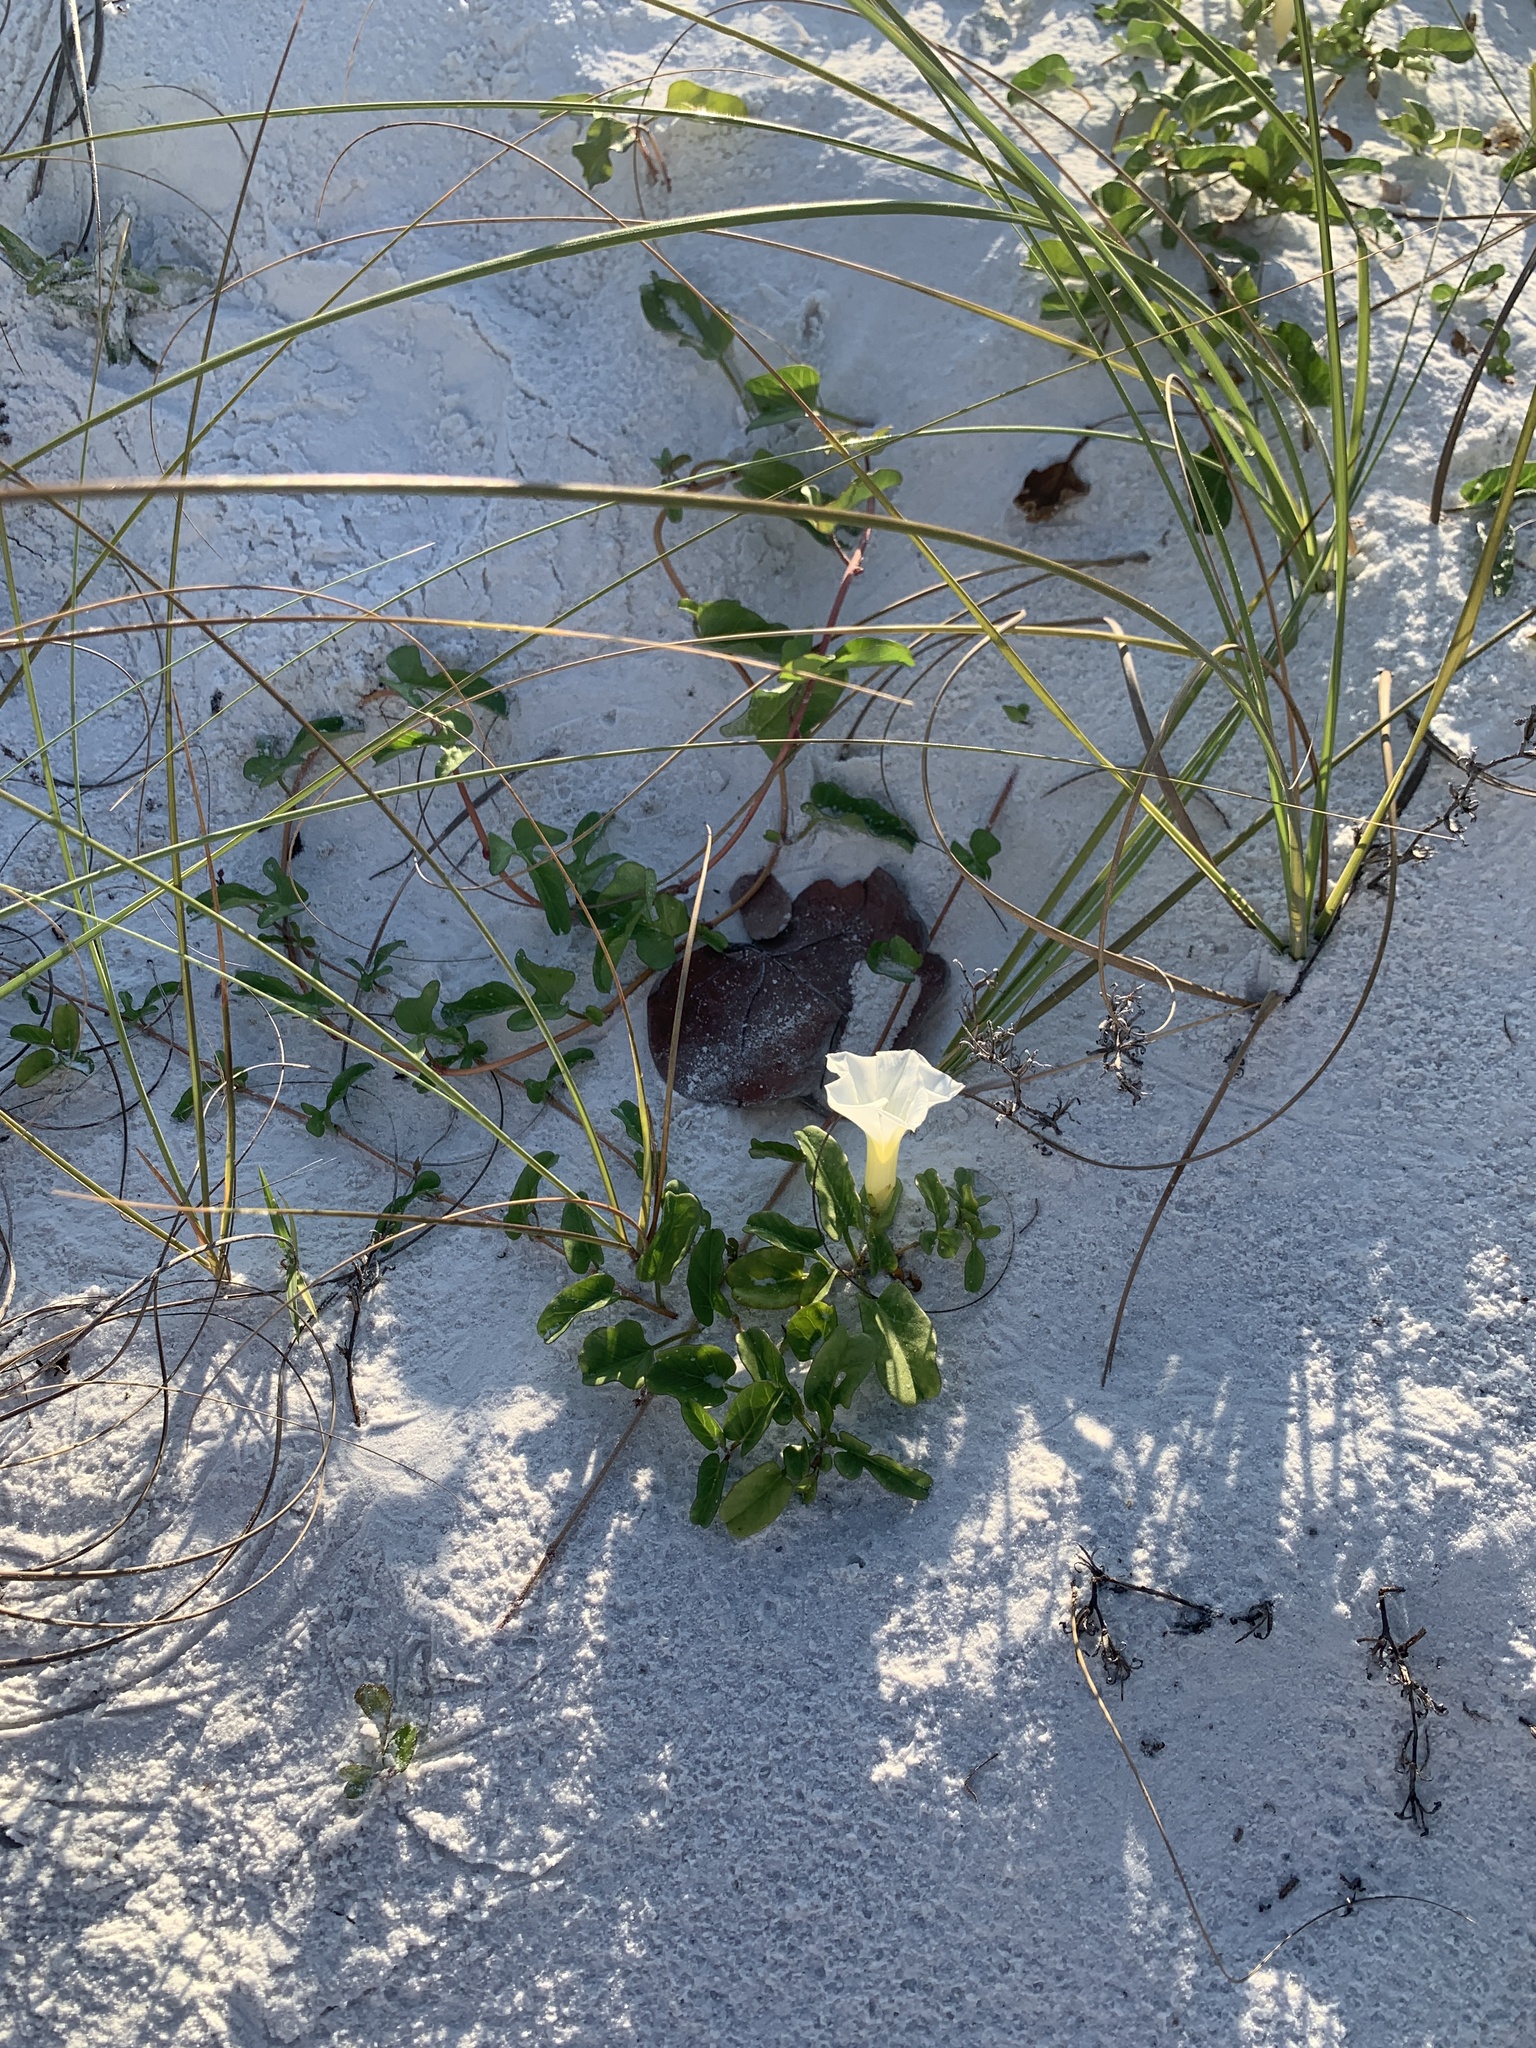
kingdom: Plantae
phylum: Tracheophyta
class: Magnoliopsida
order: Solanales
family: Convolvulaceae
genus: Ipomoea
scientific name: Ipomoea imperati
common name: Fiddle-leaf morning-glory
